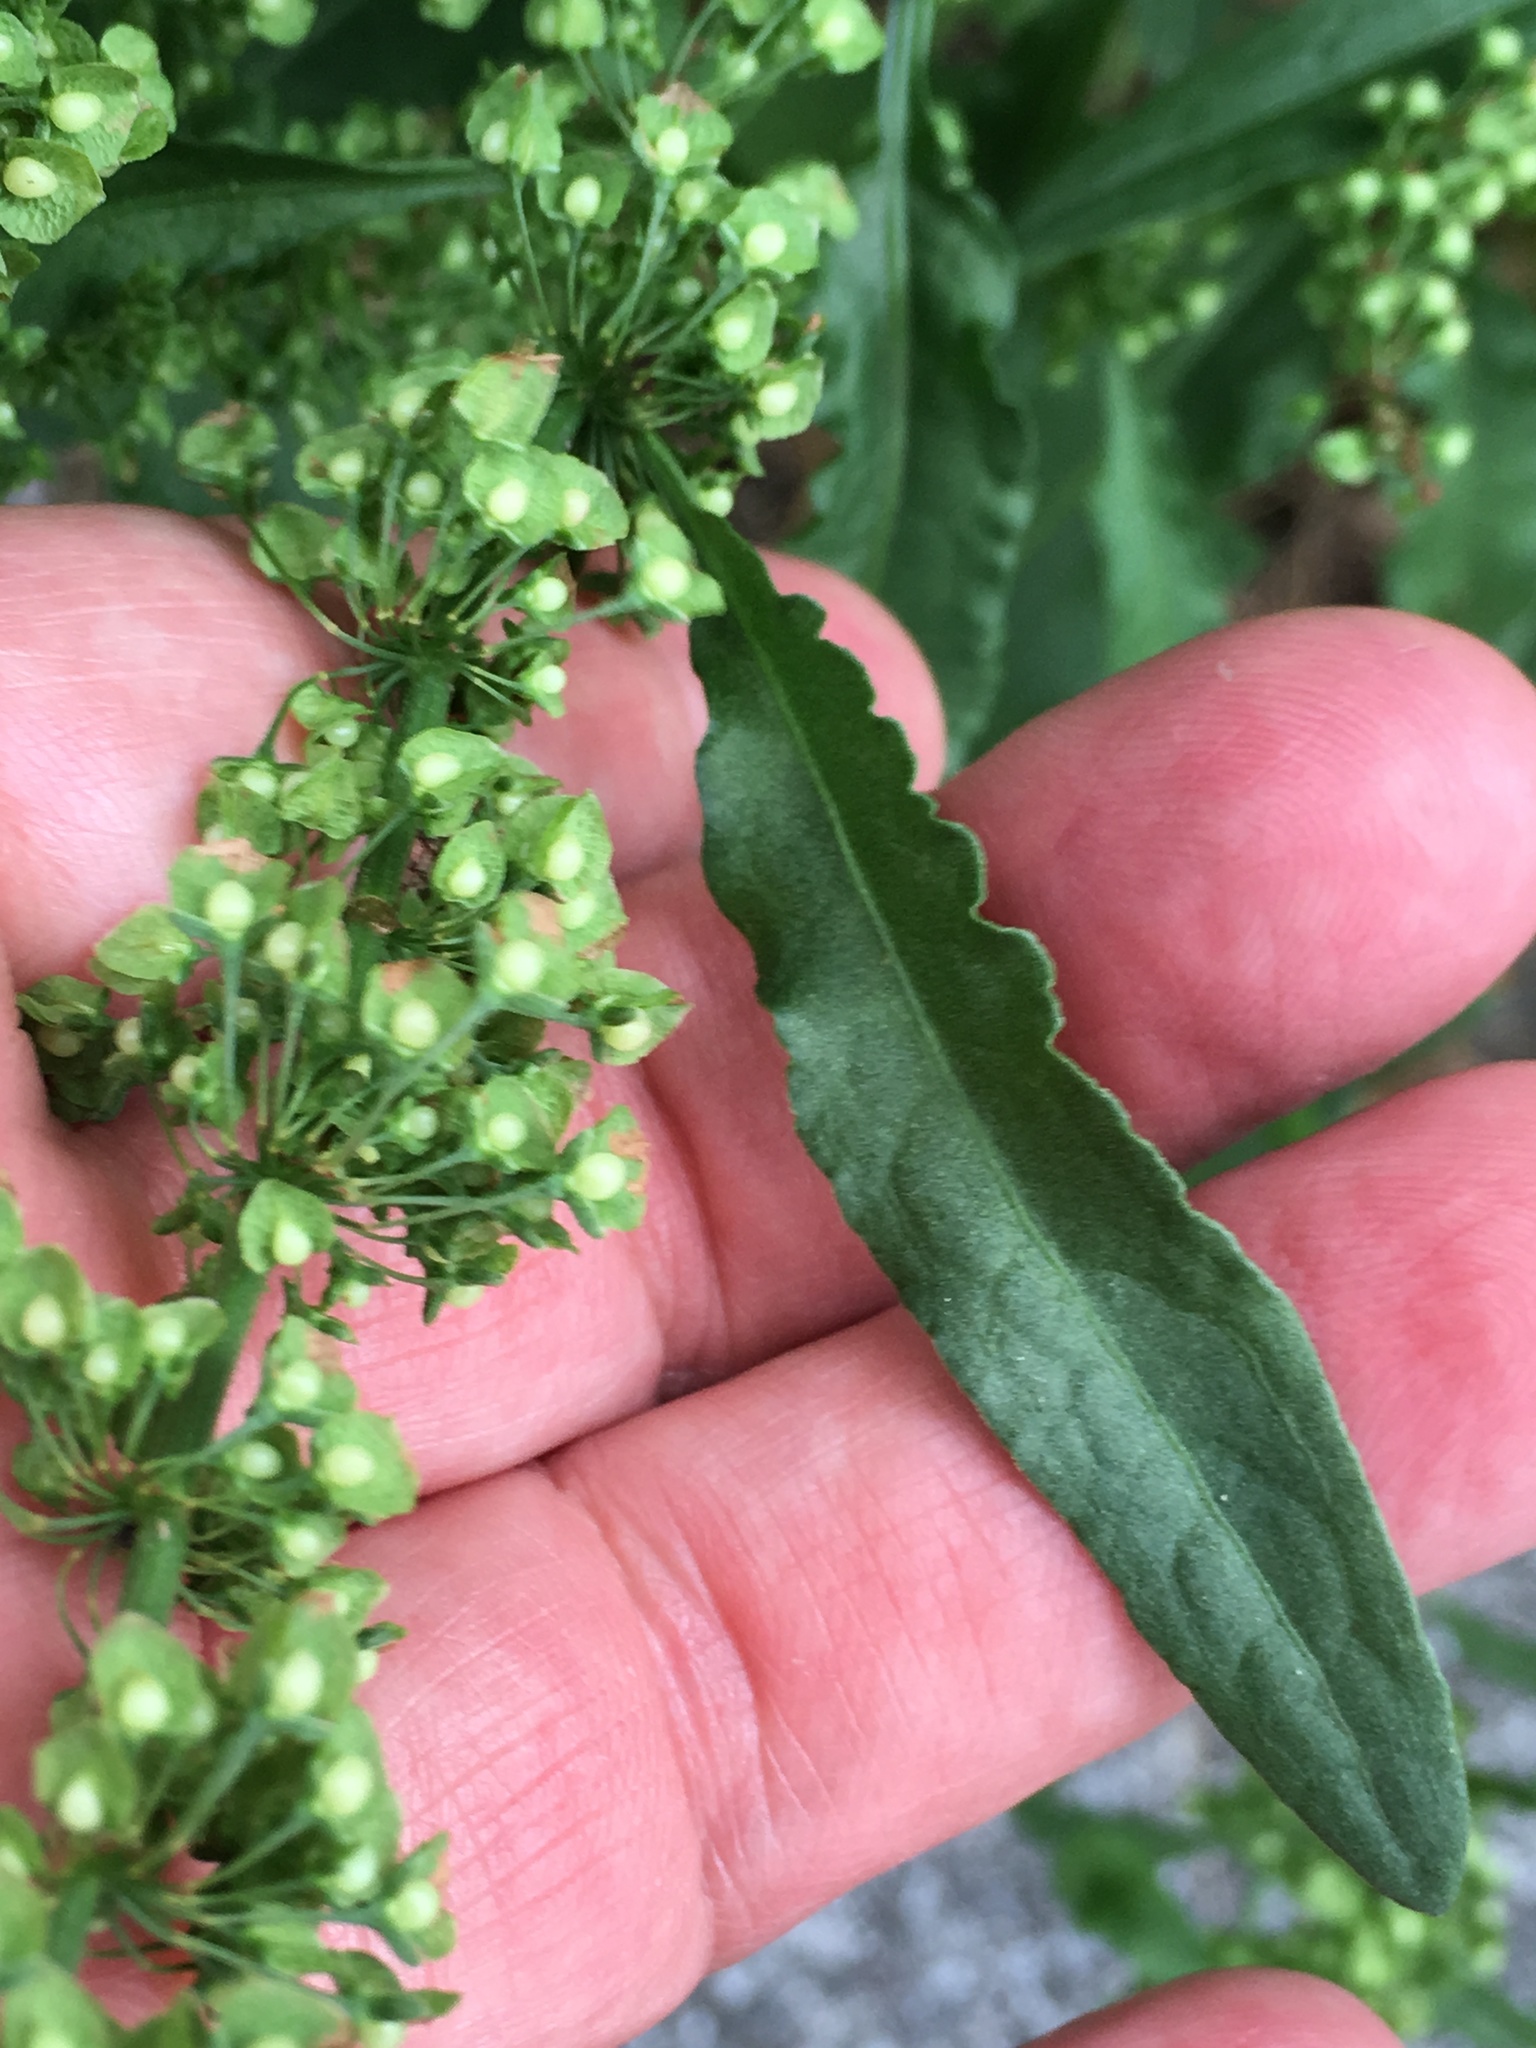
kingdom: Plantae
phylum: Tracheophyta
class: Magnoliopsida
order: Caryophyllales
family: Polygonaceae
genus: Rumex
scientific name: Rumex crispus
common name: Curled dock
